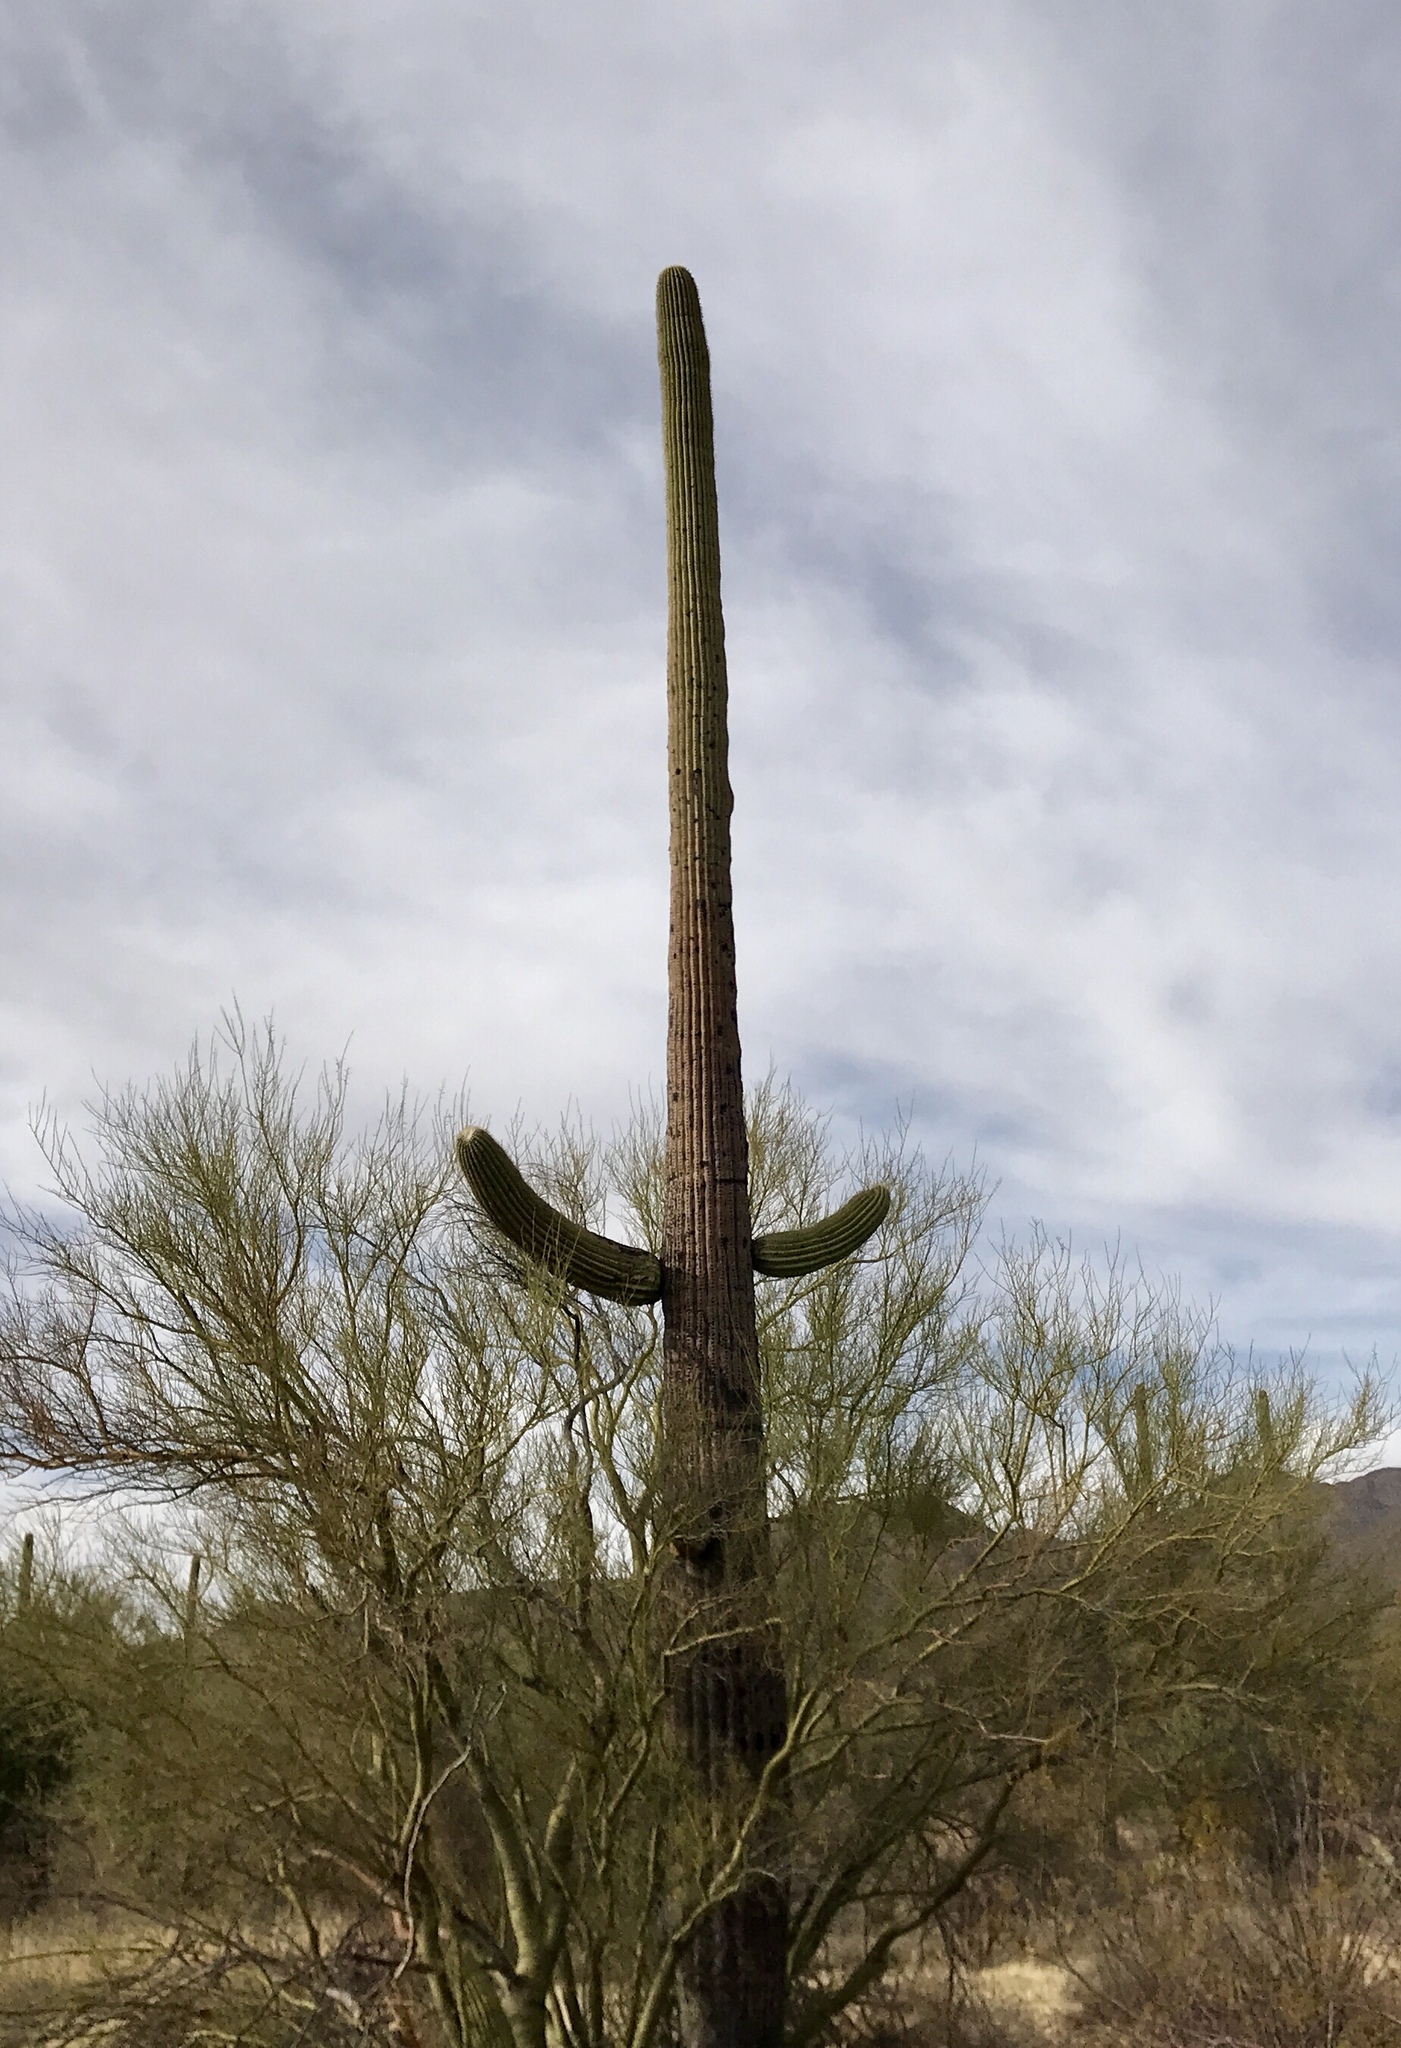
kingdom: Plantae
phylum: Tracheophyta
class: Magnoliopsida
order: Caryophyllales
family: Cactaceae
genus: Carnegiea
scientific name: Carnegiea gigantea
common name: Saguaro
